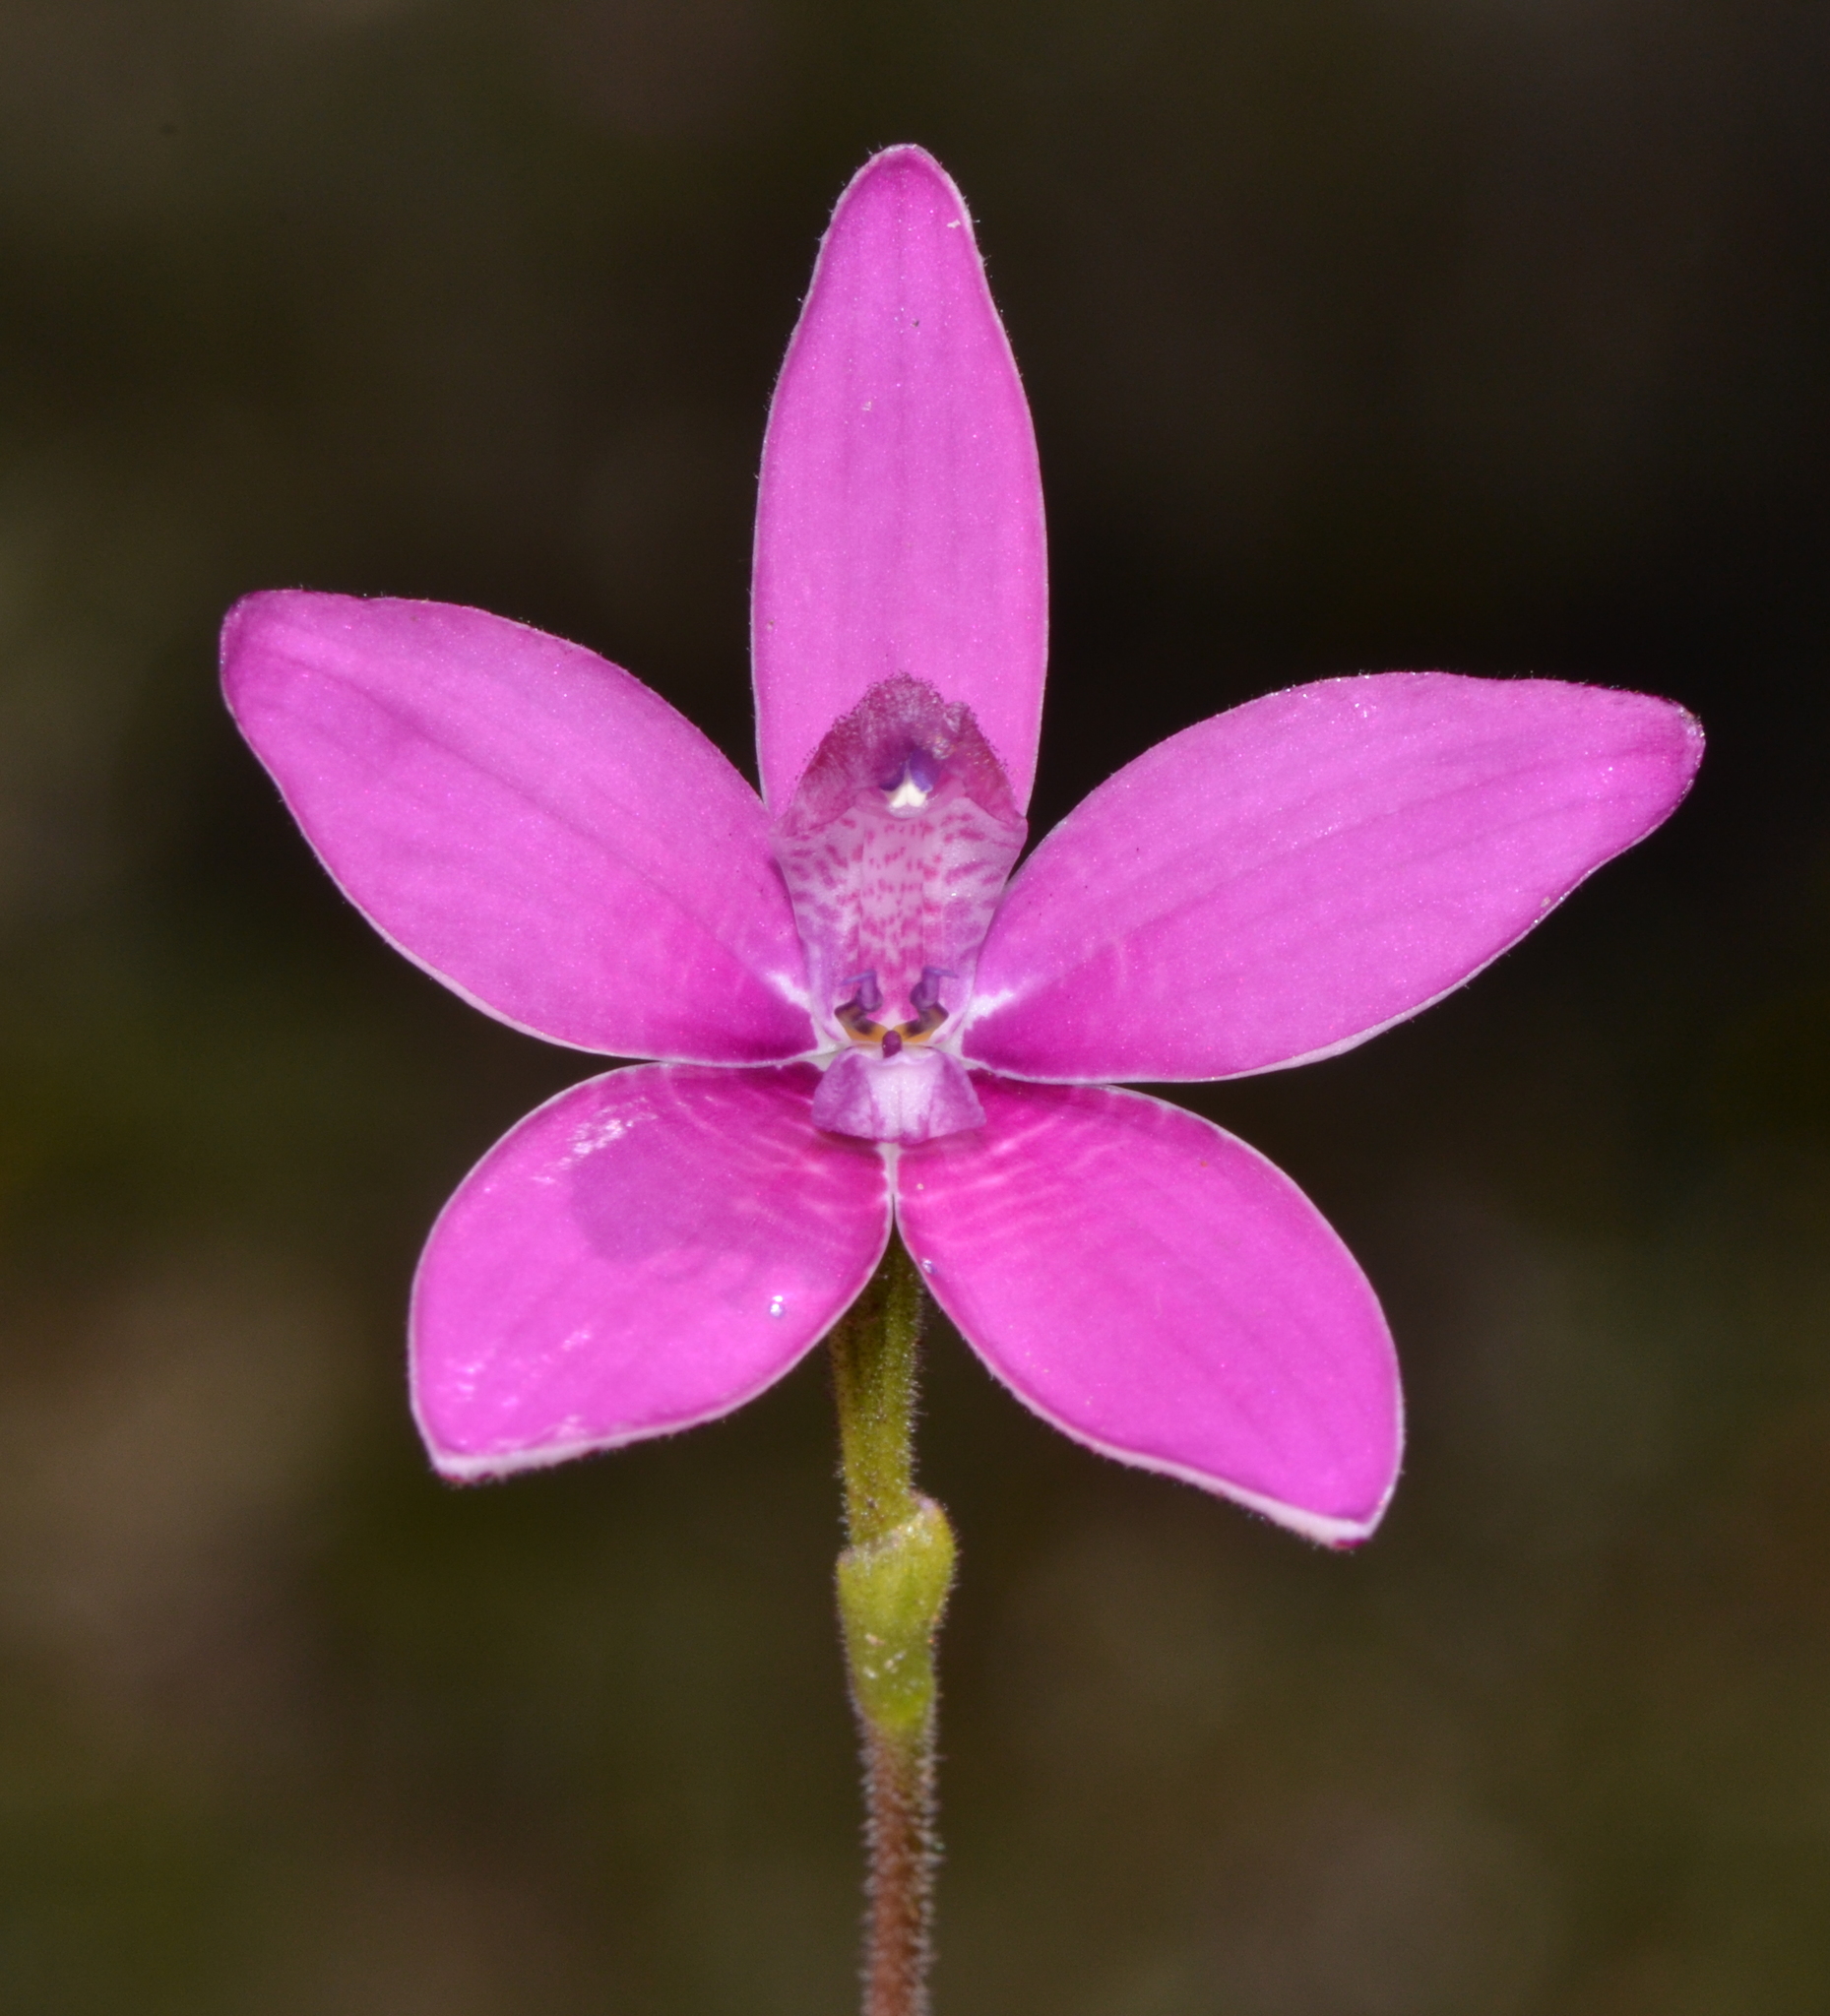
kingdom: Plantae
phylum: Tracheophyta
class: Liliopsida
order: Asparagales
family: Orchidaceae
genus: Caladenia
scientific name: Caladenia emarginata
